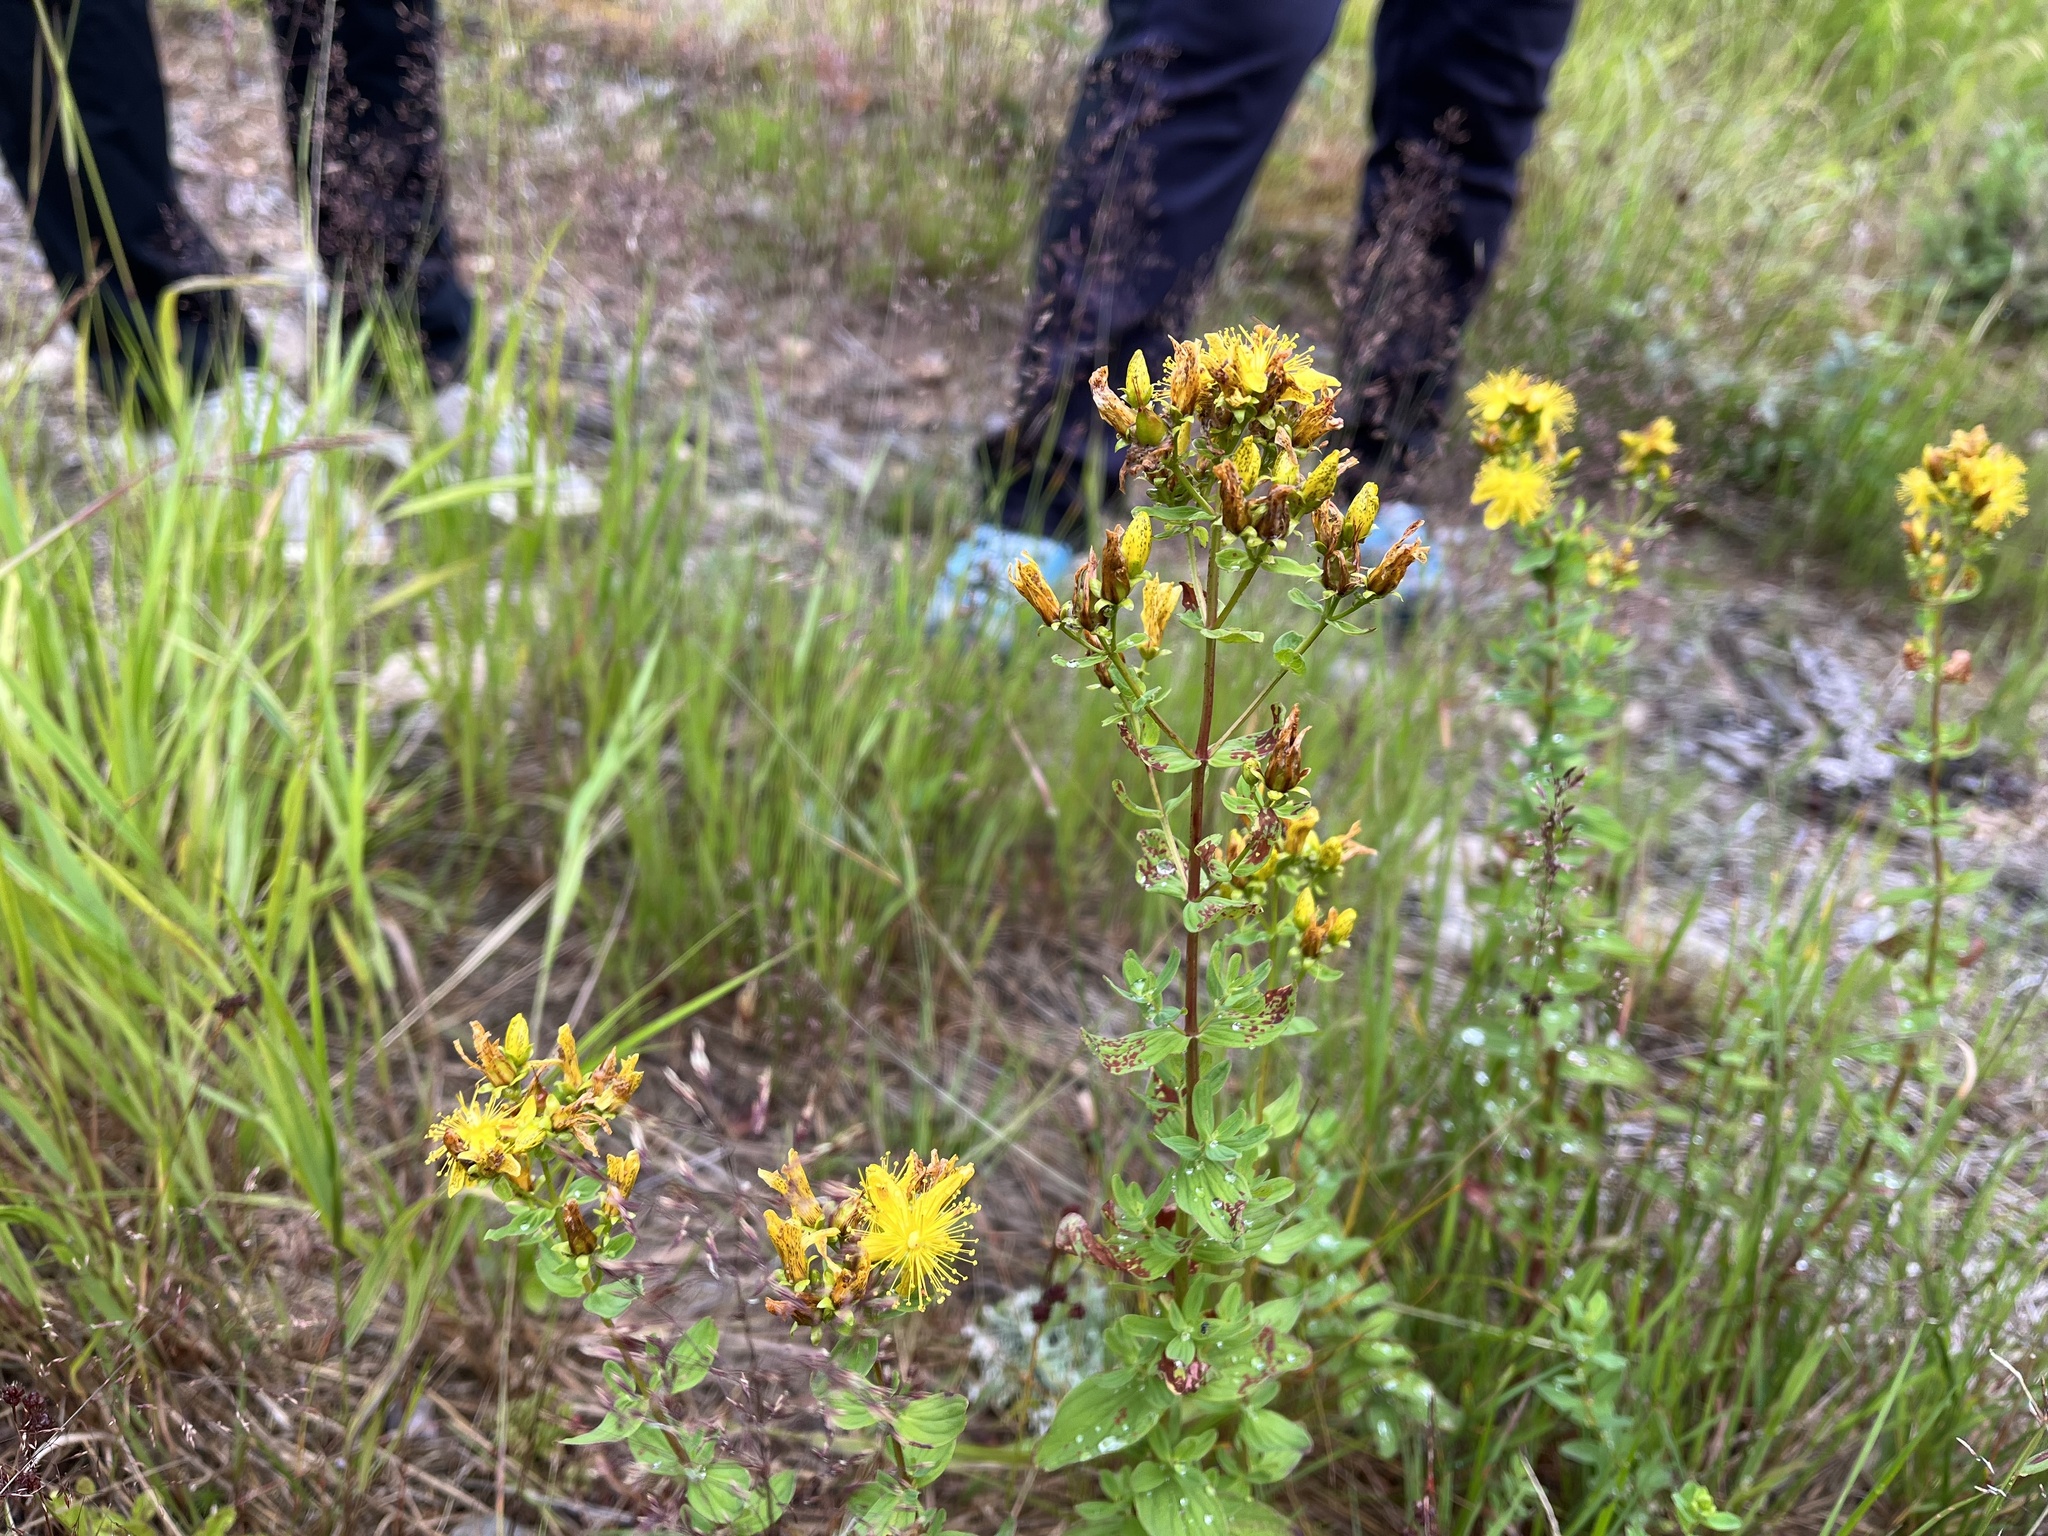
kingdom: Plantae
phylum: Tracheophyta
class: Magnoliopsida
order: Malpighiales
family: Hypericaceae
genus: Hypericum
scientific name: Hypericum maculatum
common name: Imperforate st. john's-wort
